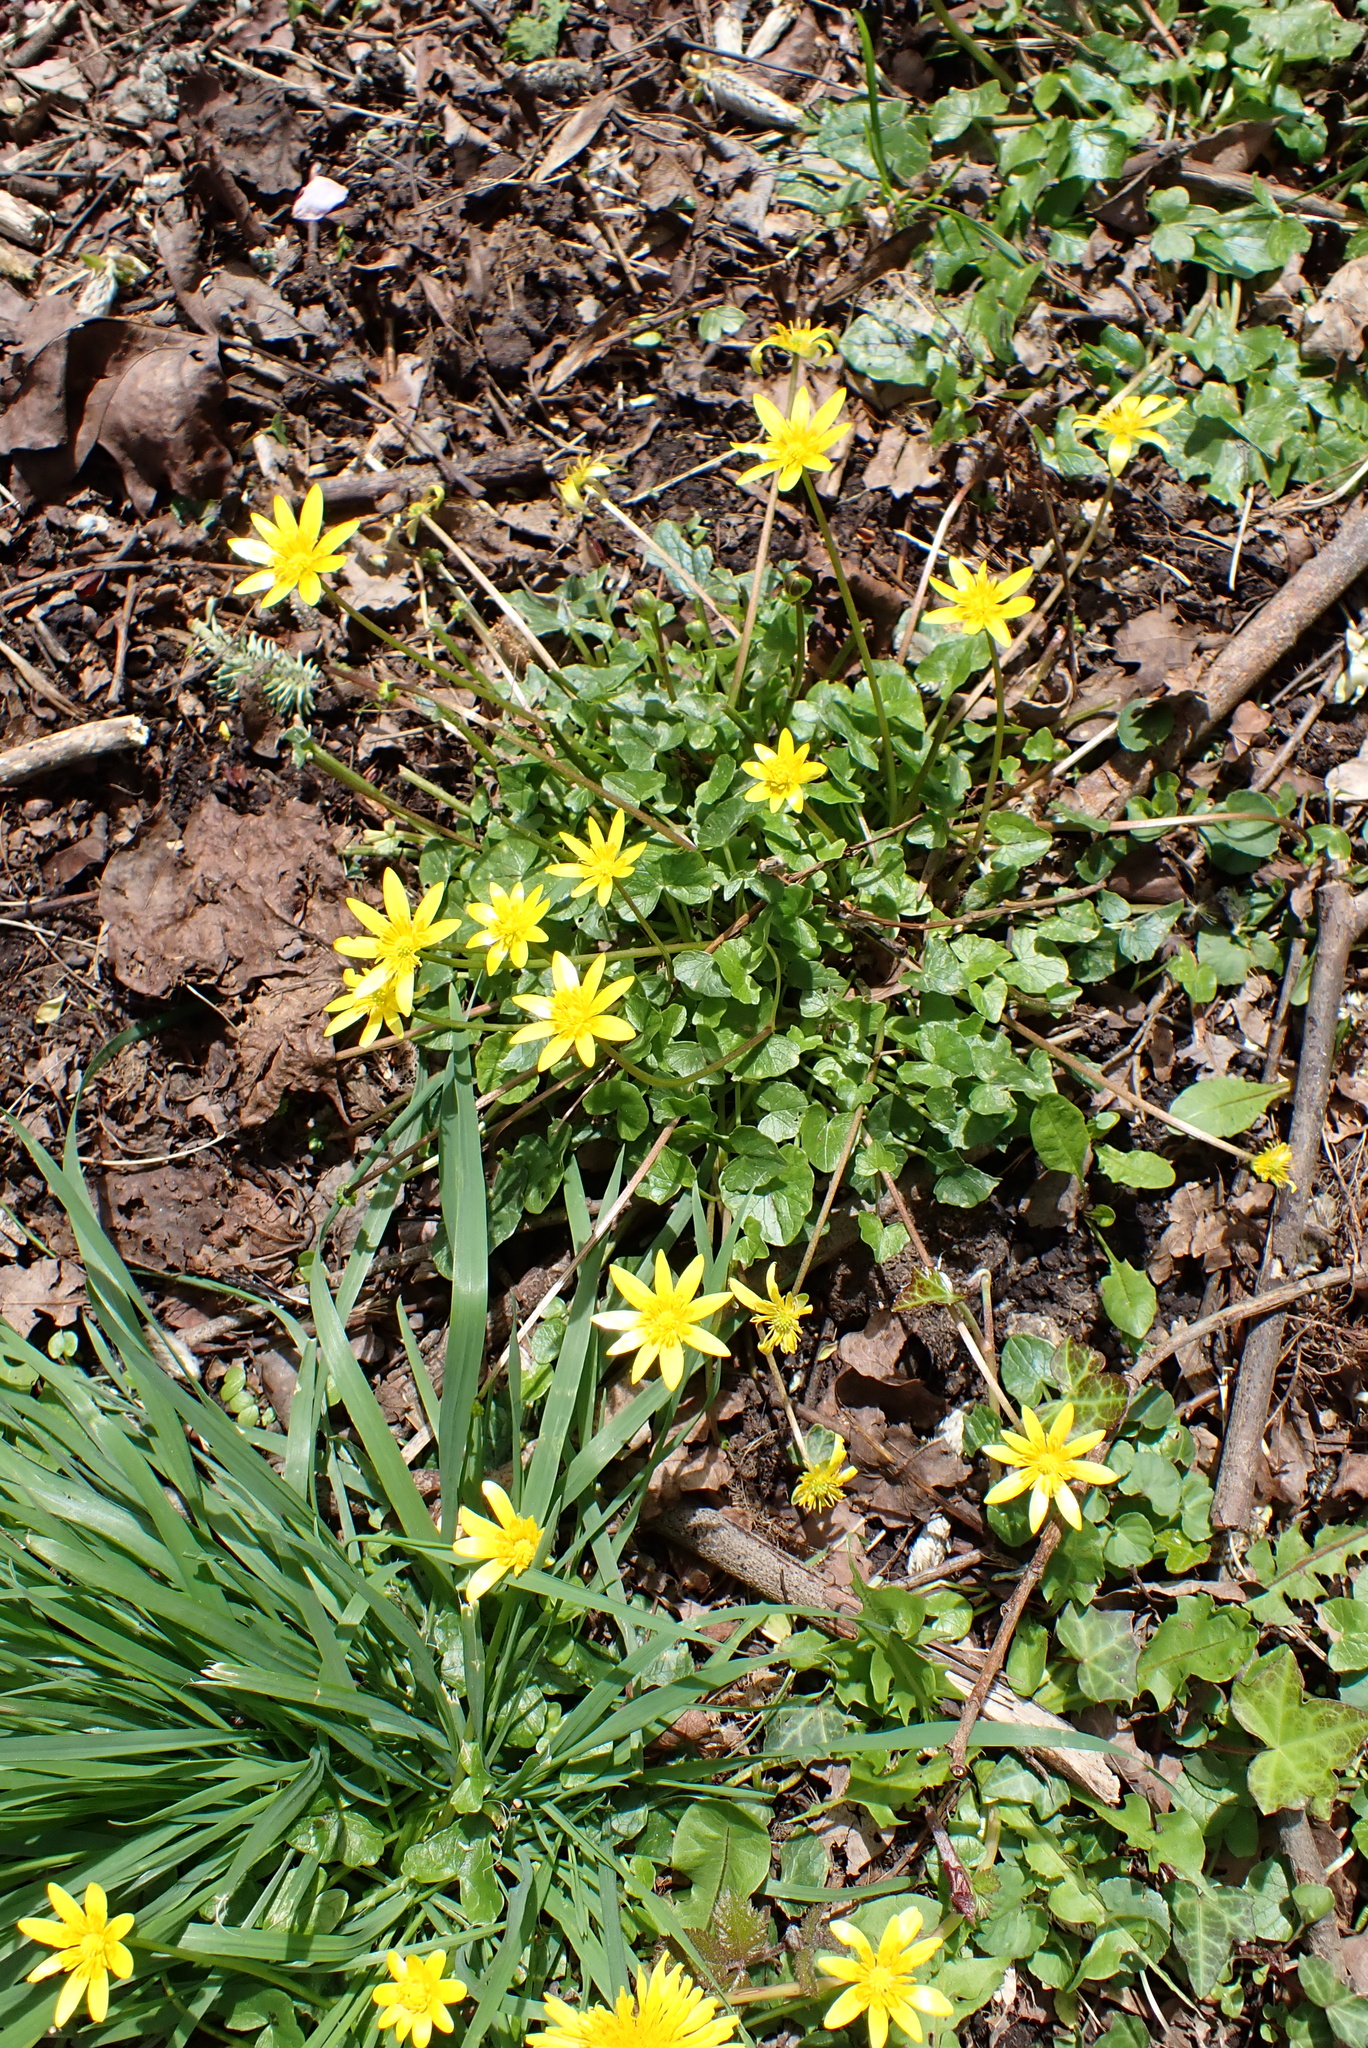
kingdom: Plantae
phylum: Tracheophyta
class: Magnoliopsida
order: Ranunculales
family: Ranunculaceae
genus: Ficaria
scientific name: Ficaria verna
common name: Lesser celandine
